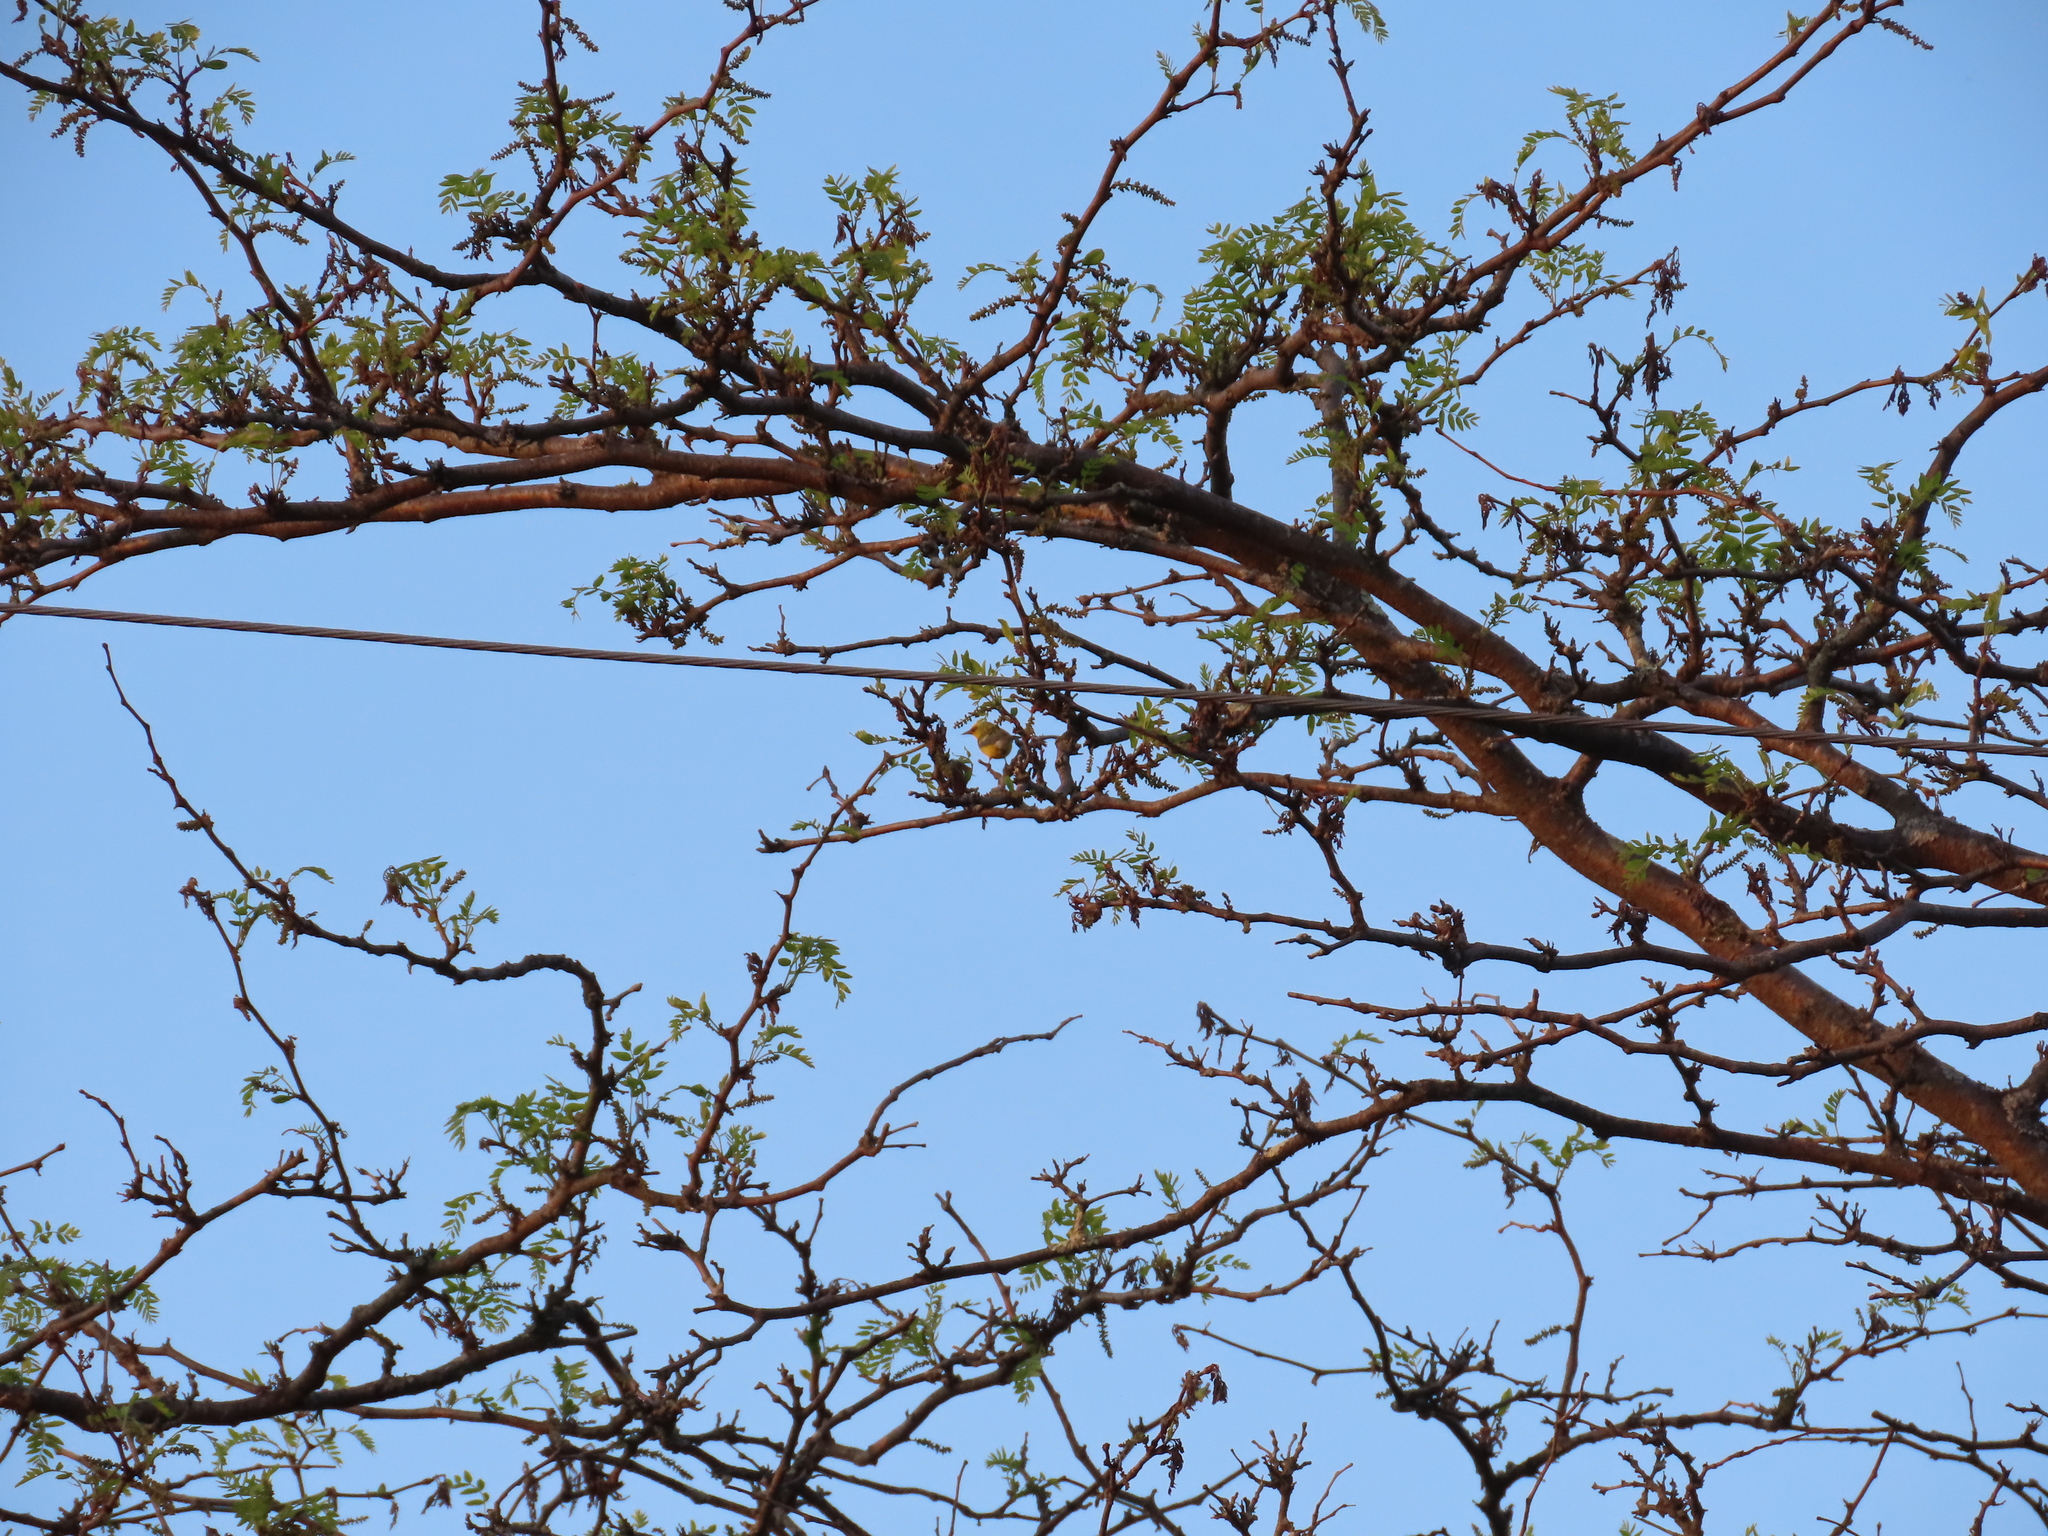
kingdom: Plantae
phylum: Tracheophyta
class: Magnoliopsida
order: Fabales
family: Fabaceae
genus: Gleditsia
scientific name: Gleditsia triacanthos
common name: Common honeylocust
